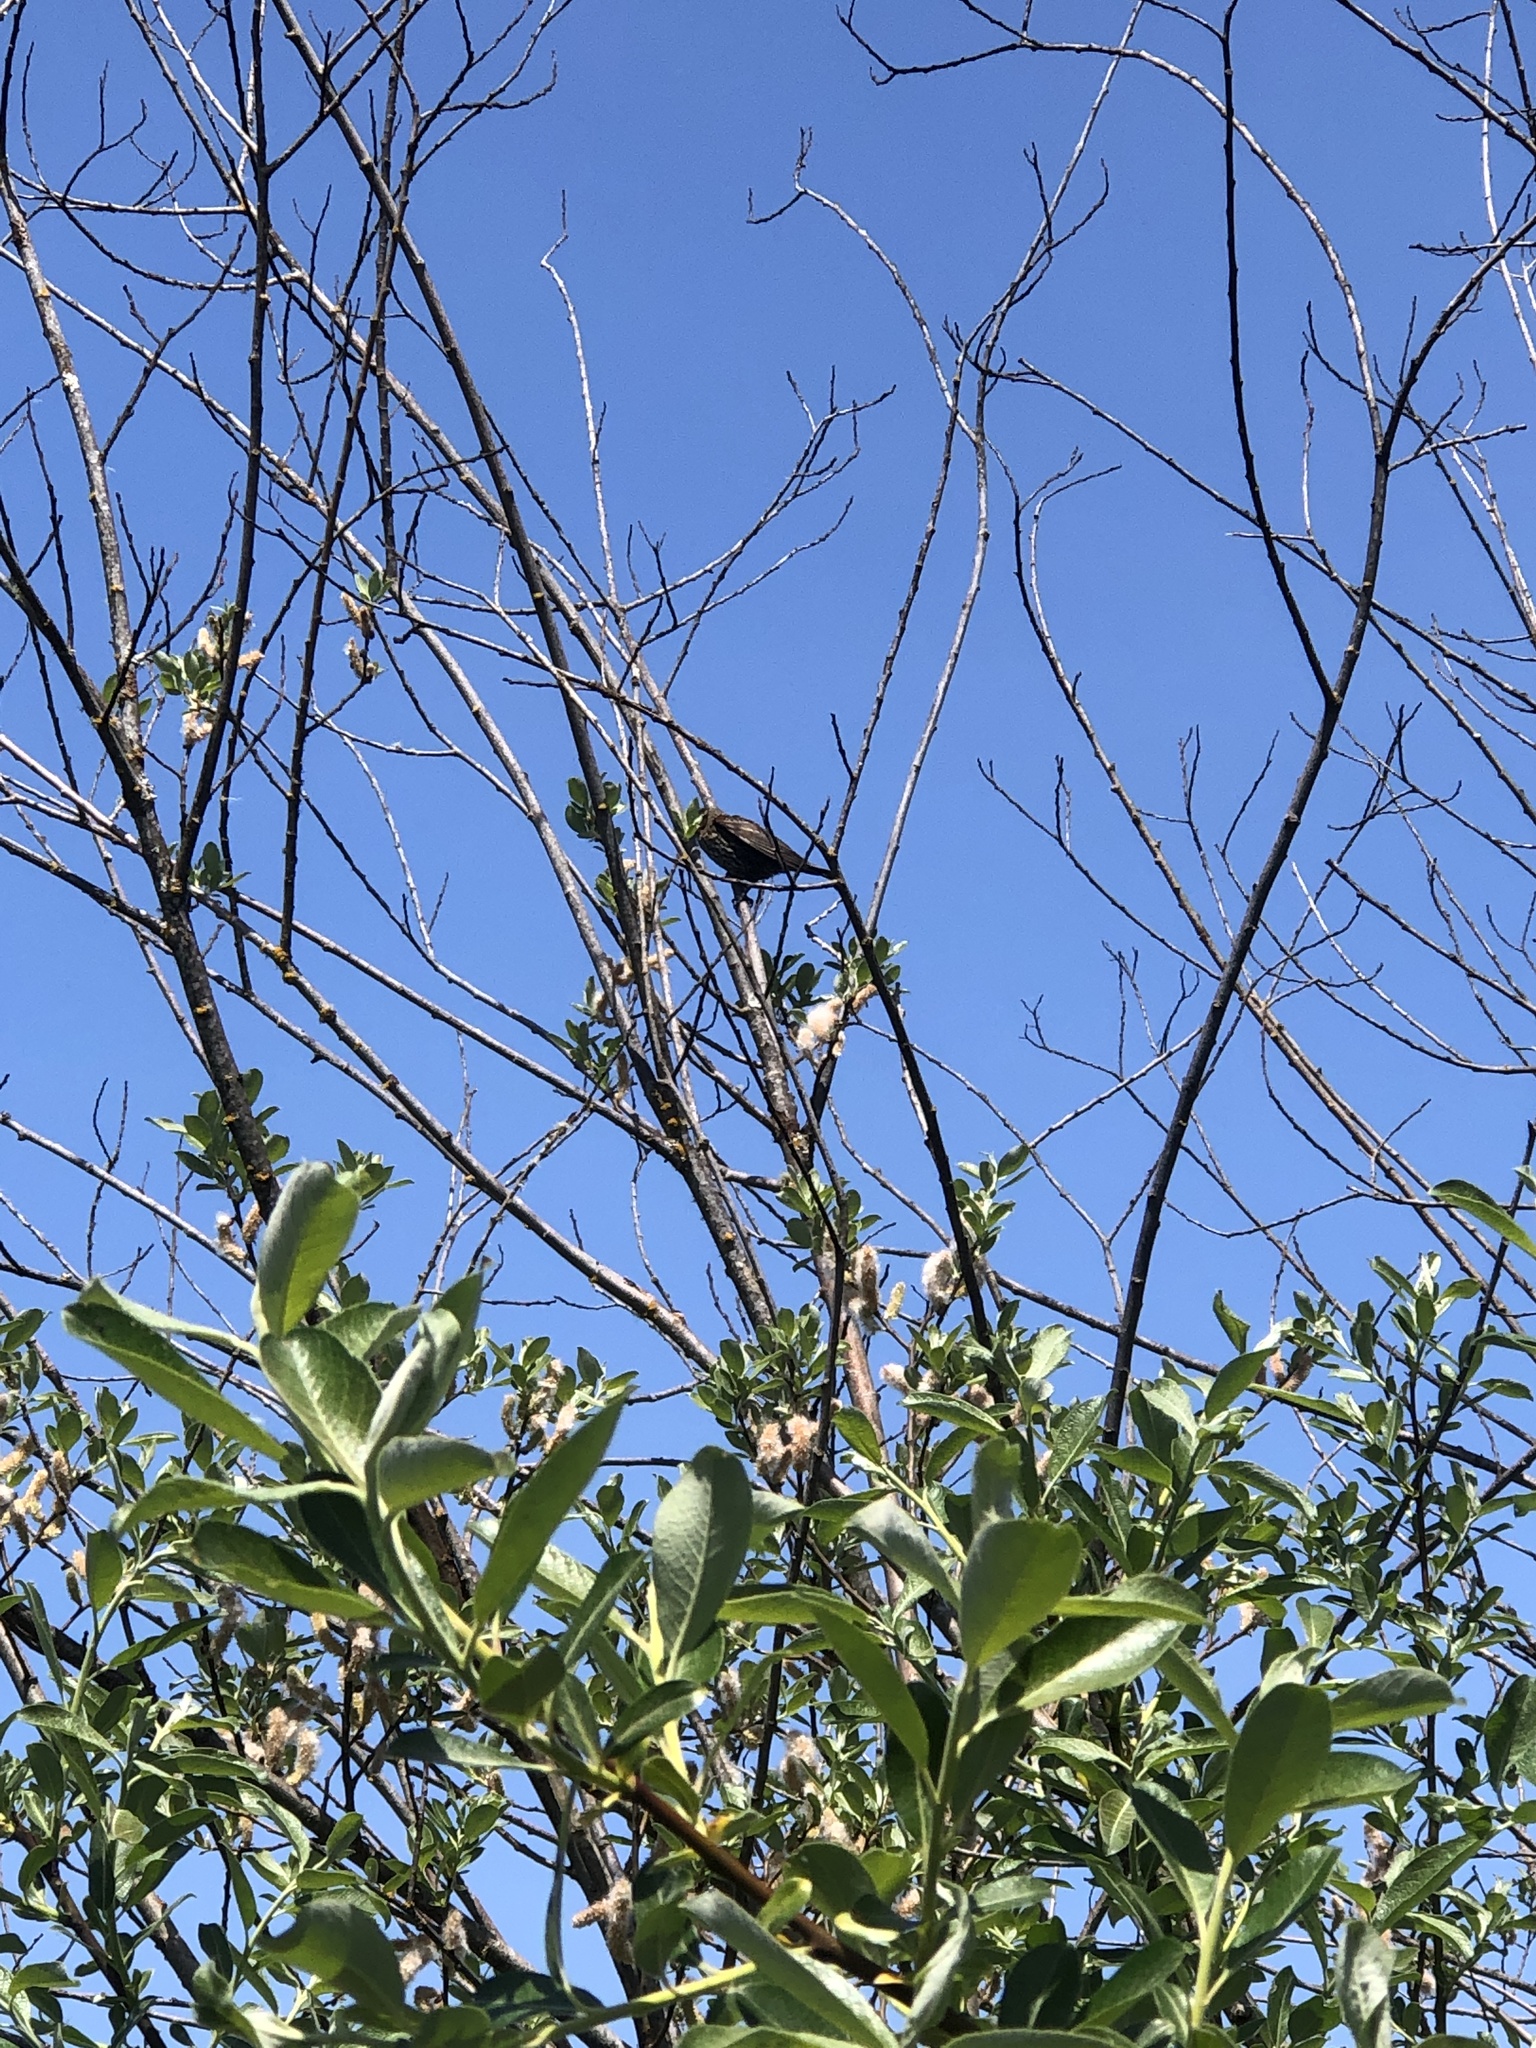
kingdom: Animalia
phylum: Chordata
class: Aves
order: Passeriformes
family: Icteridae
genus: Agelaius
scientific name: Agelaius phoeniceus
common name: Red-winged blackbird
